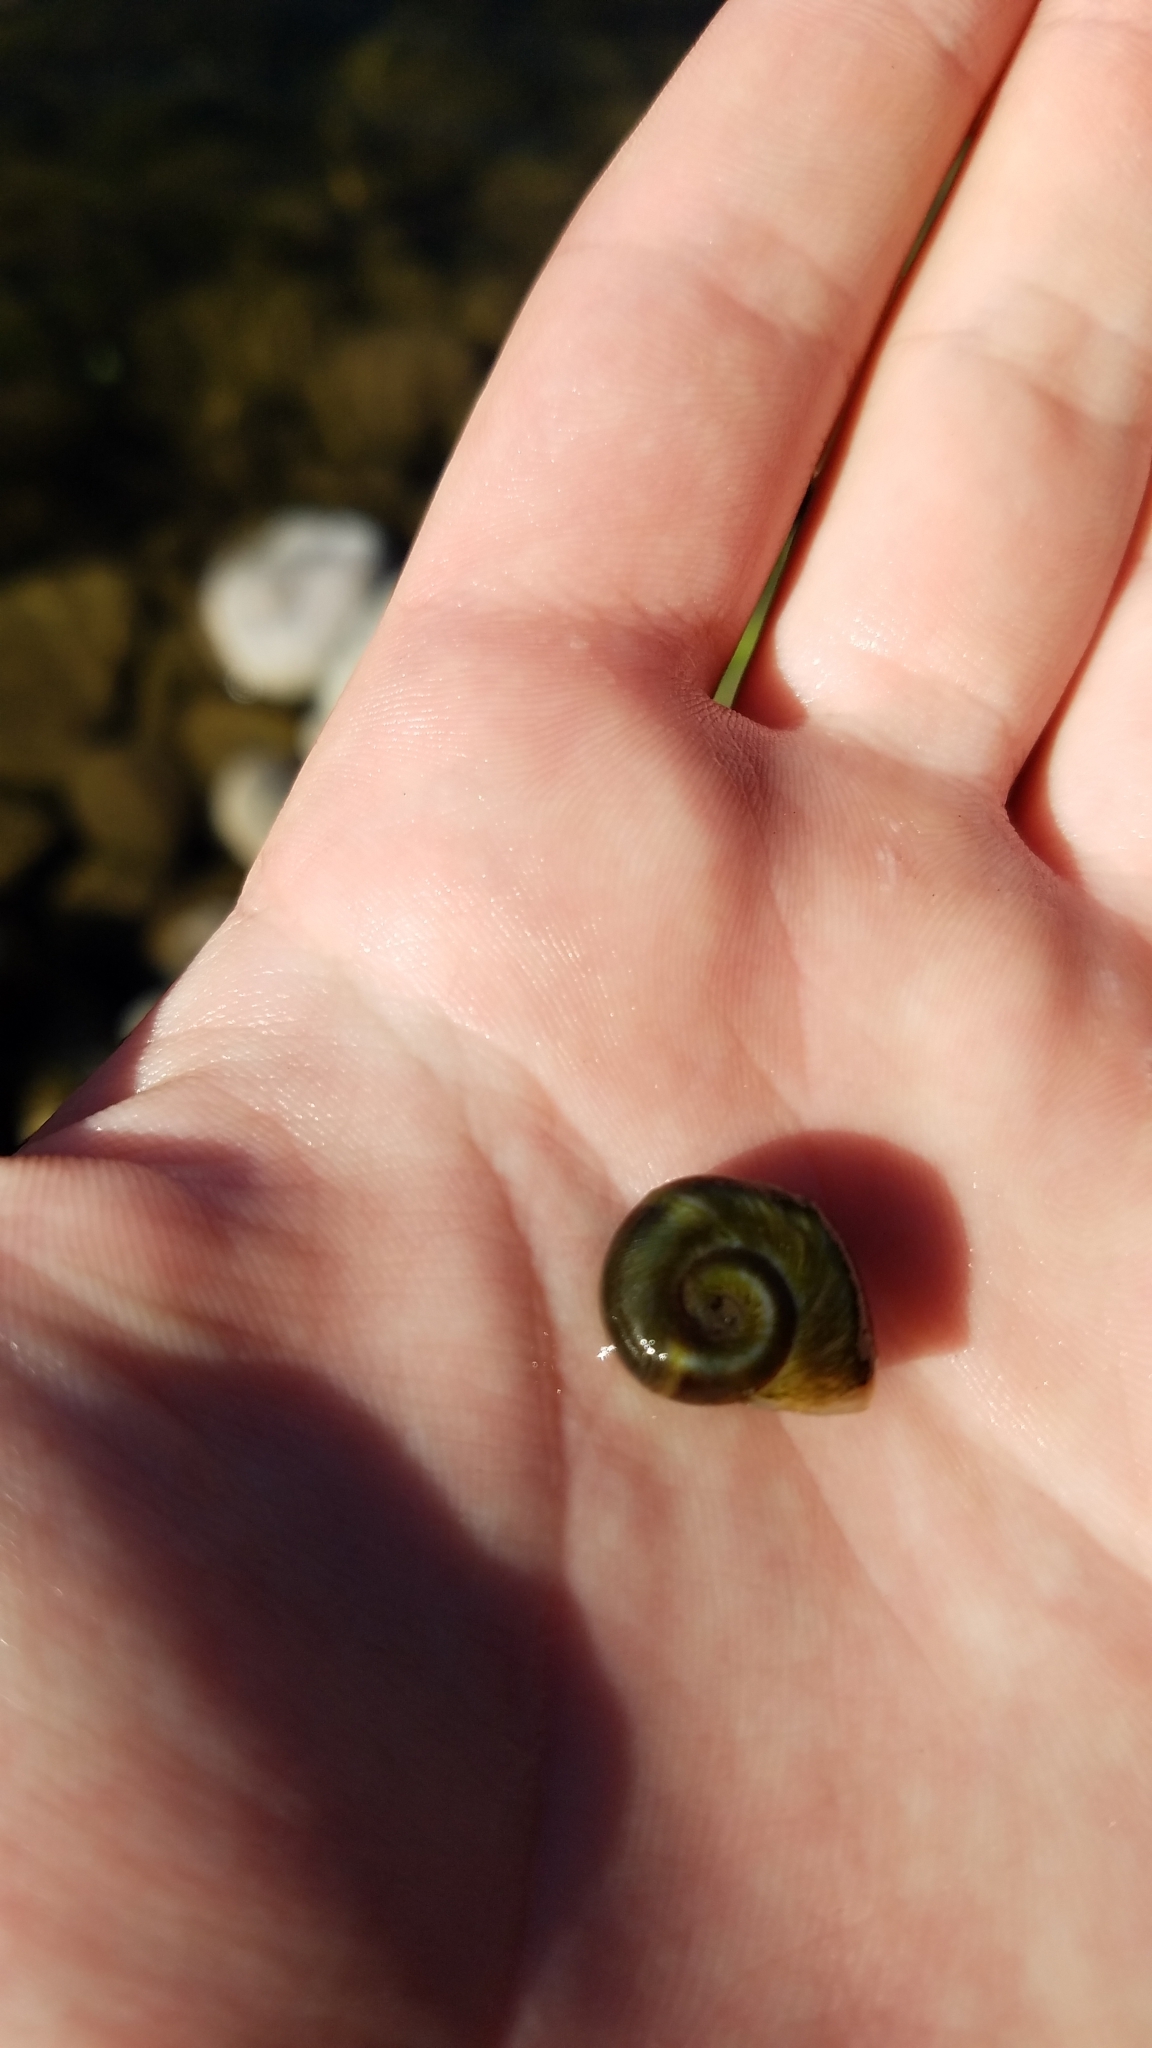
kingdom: Animalia
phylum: Mollusca
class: Gastropoda
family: Planorbidae
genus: Planorbella
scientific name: Planorbella trivolvis
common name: Marsh rams-horn
